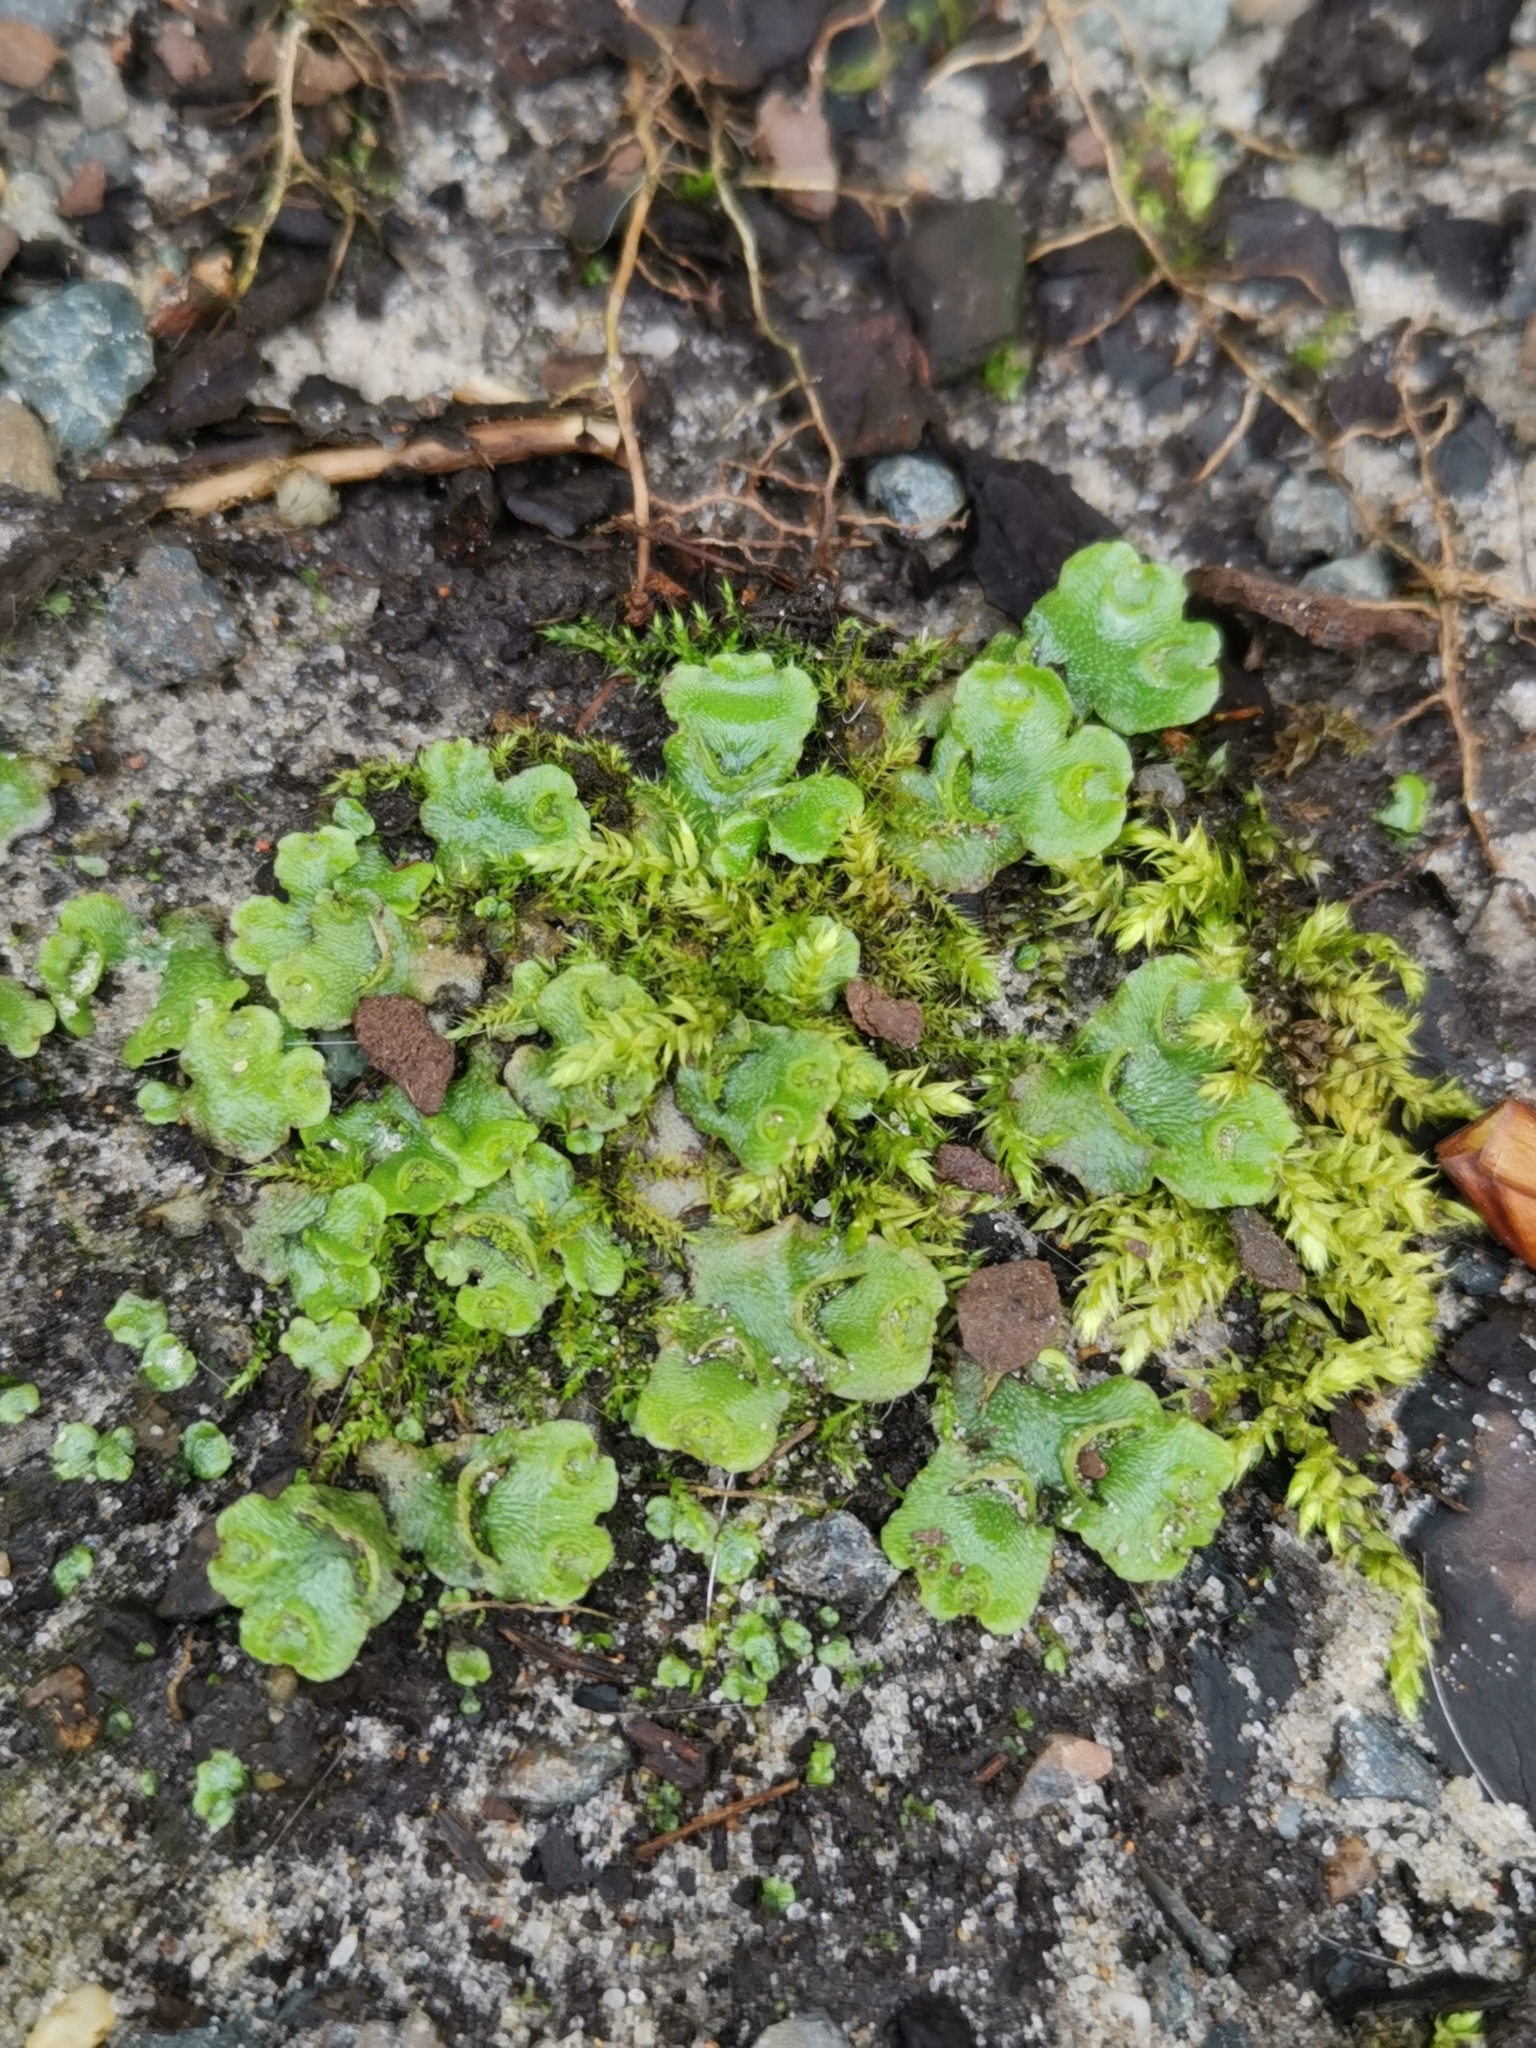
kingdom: Plantae
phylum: Marchantiophyta
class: Marchantiopsida
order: Lunulariales
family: Lunulariaceae
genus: Lunularia
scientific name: Lunularia cruciata
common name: Crescent-cup liverwort
